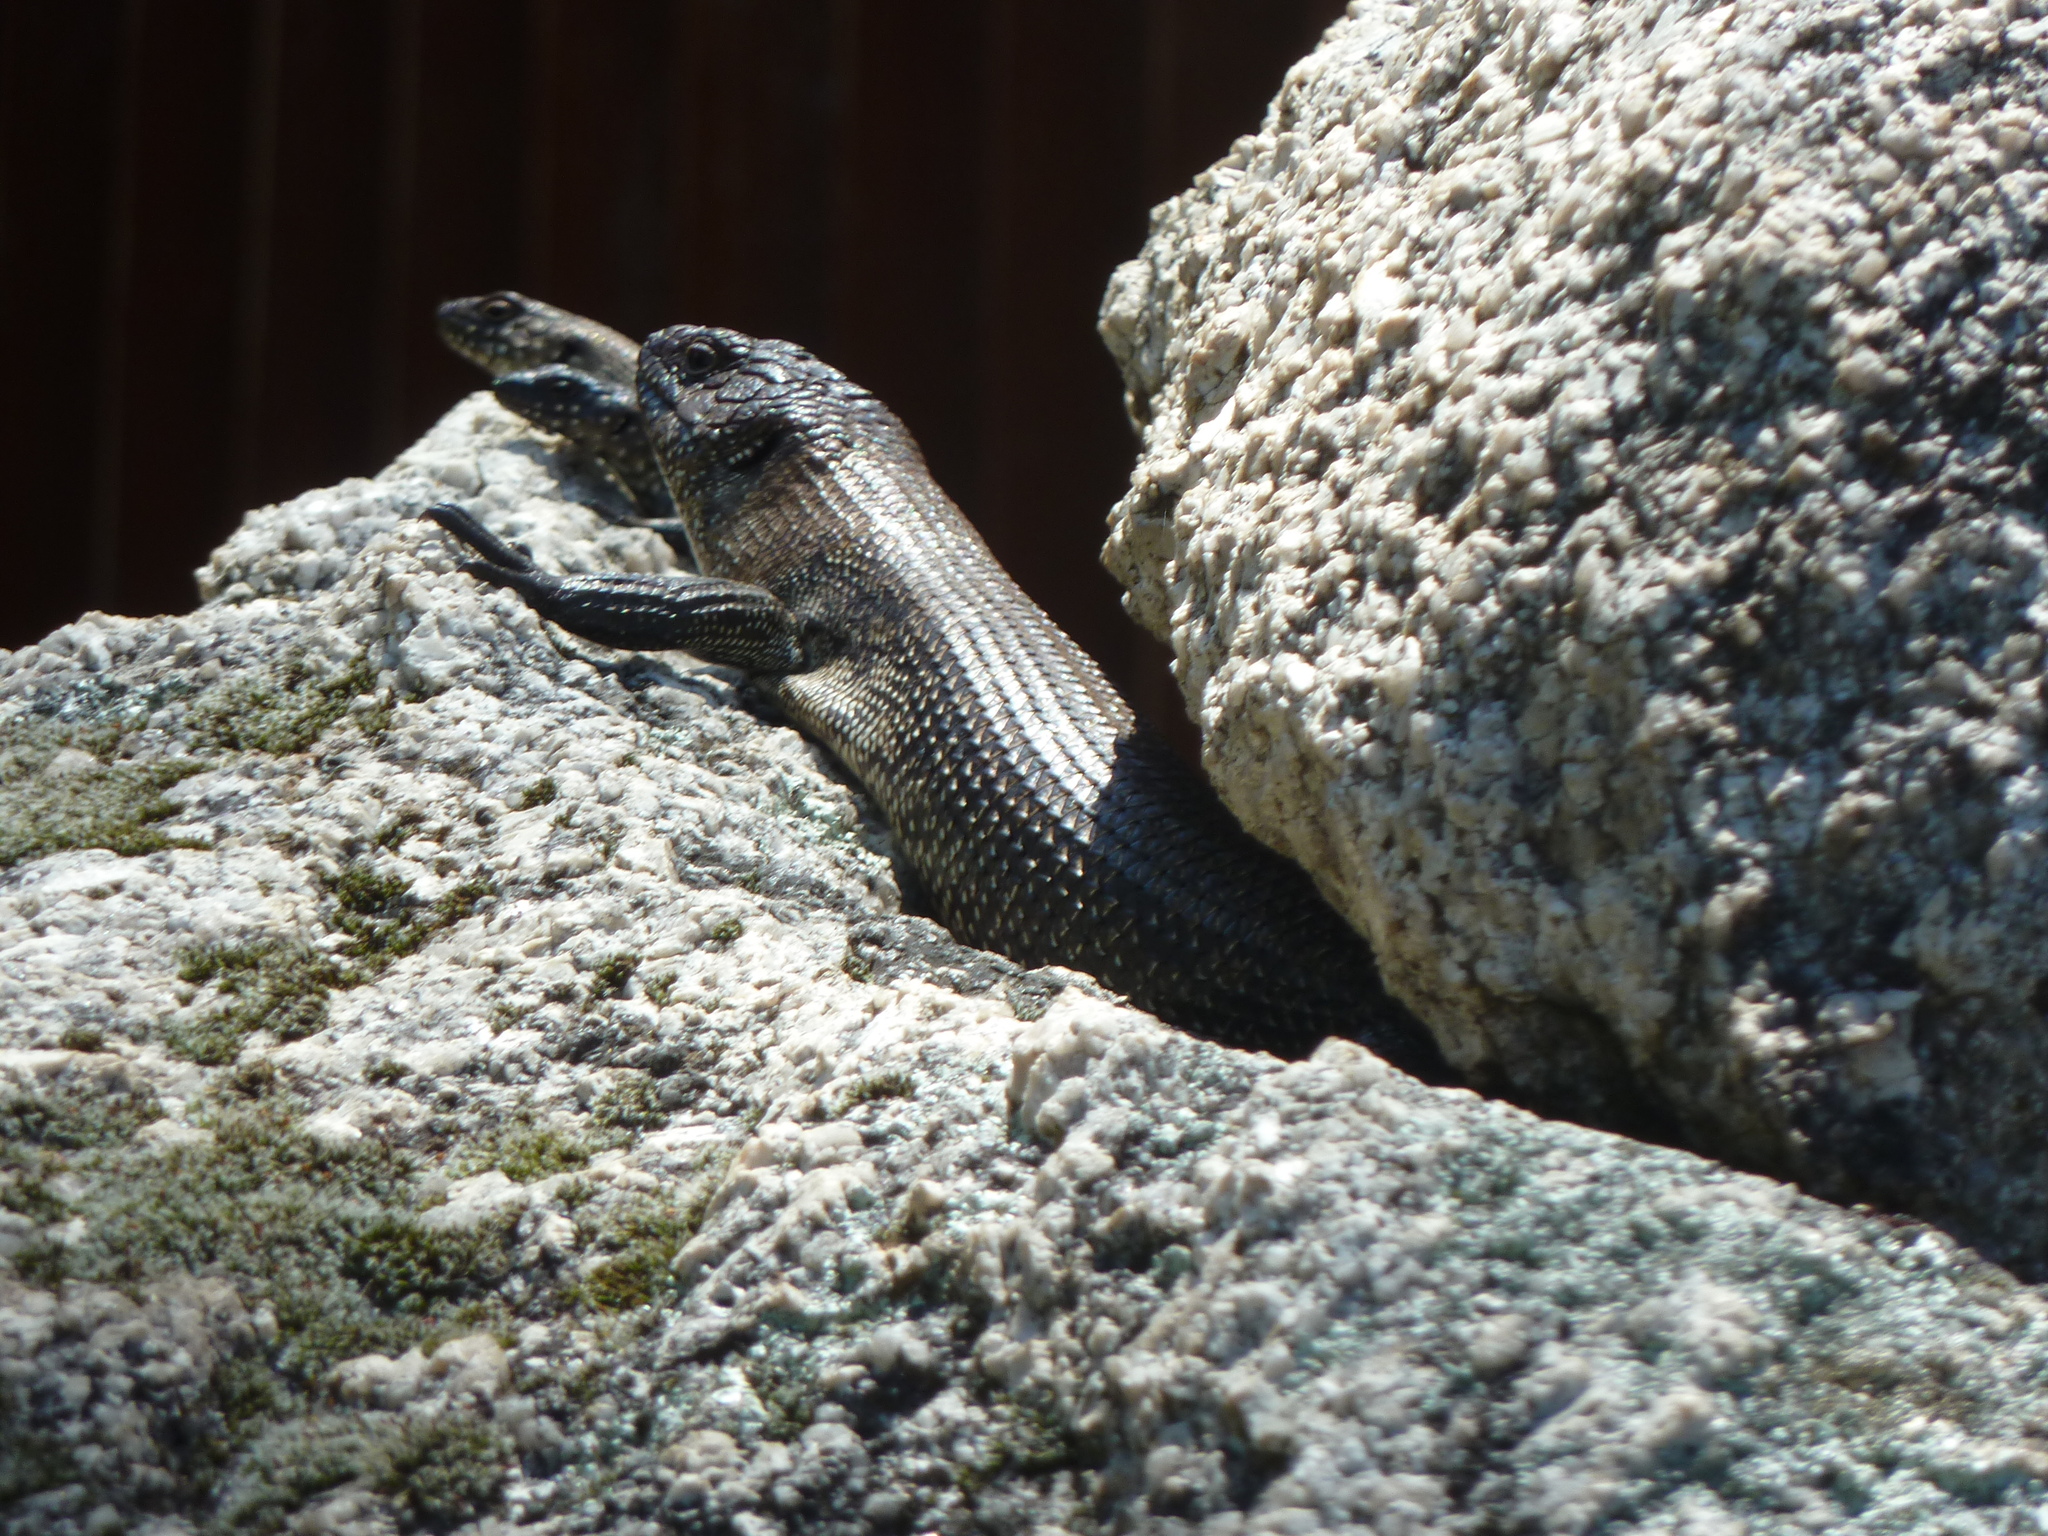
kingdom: Animalia
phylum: Chordata
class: Squamata
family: Scincidae
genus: Egernia
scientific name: Egernia cunninghami
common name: Cunningham's skink
